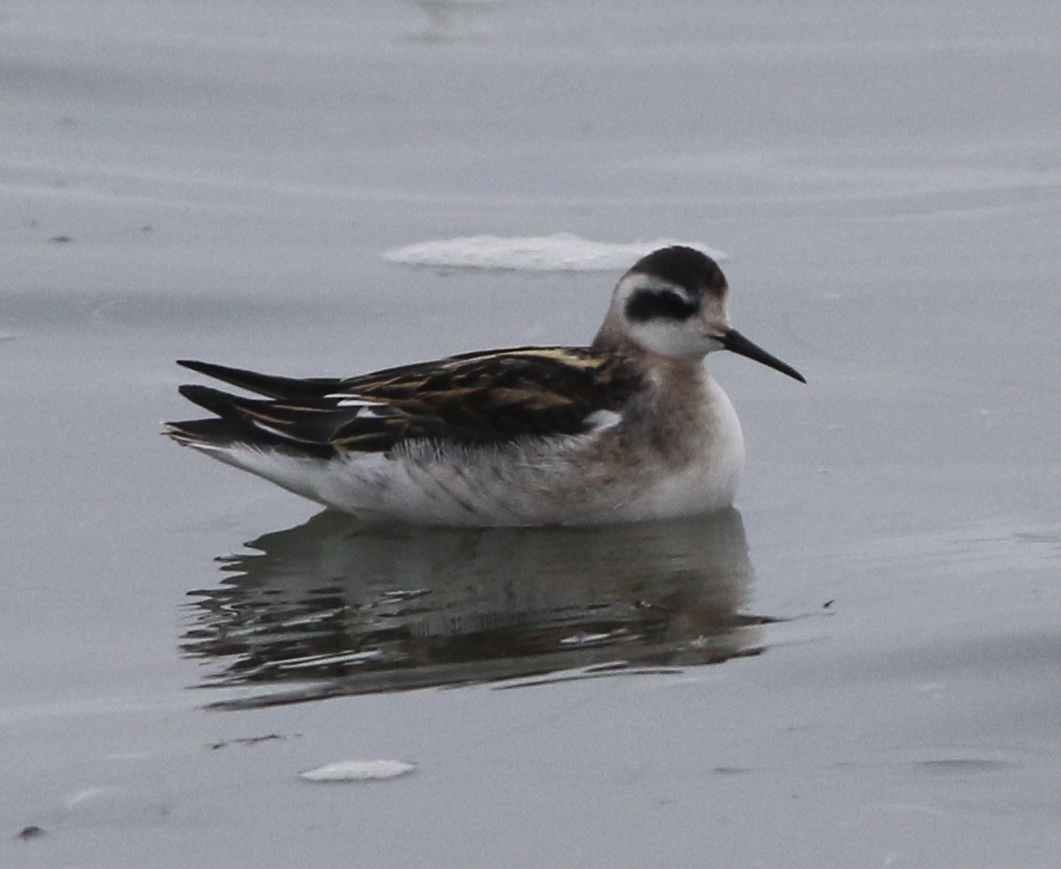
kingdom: Animalia
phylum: Chordata
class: Aves
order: Charadriiformes
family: Scolopacidae
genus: Phalaropus
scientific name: Phalaropus lobatus
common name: Red-necked phalarope
